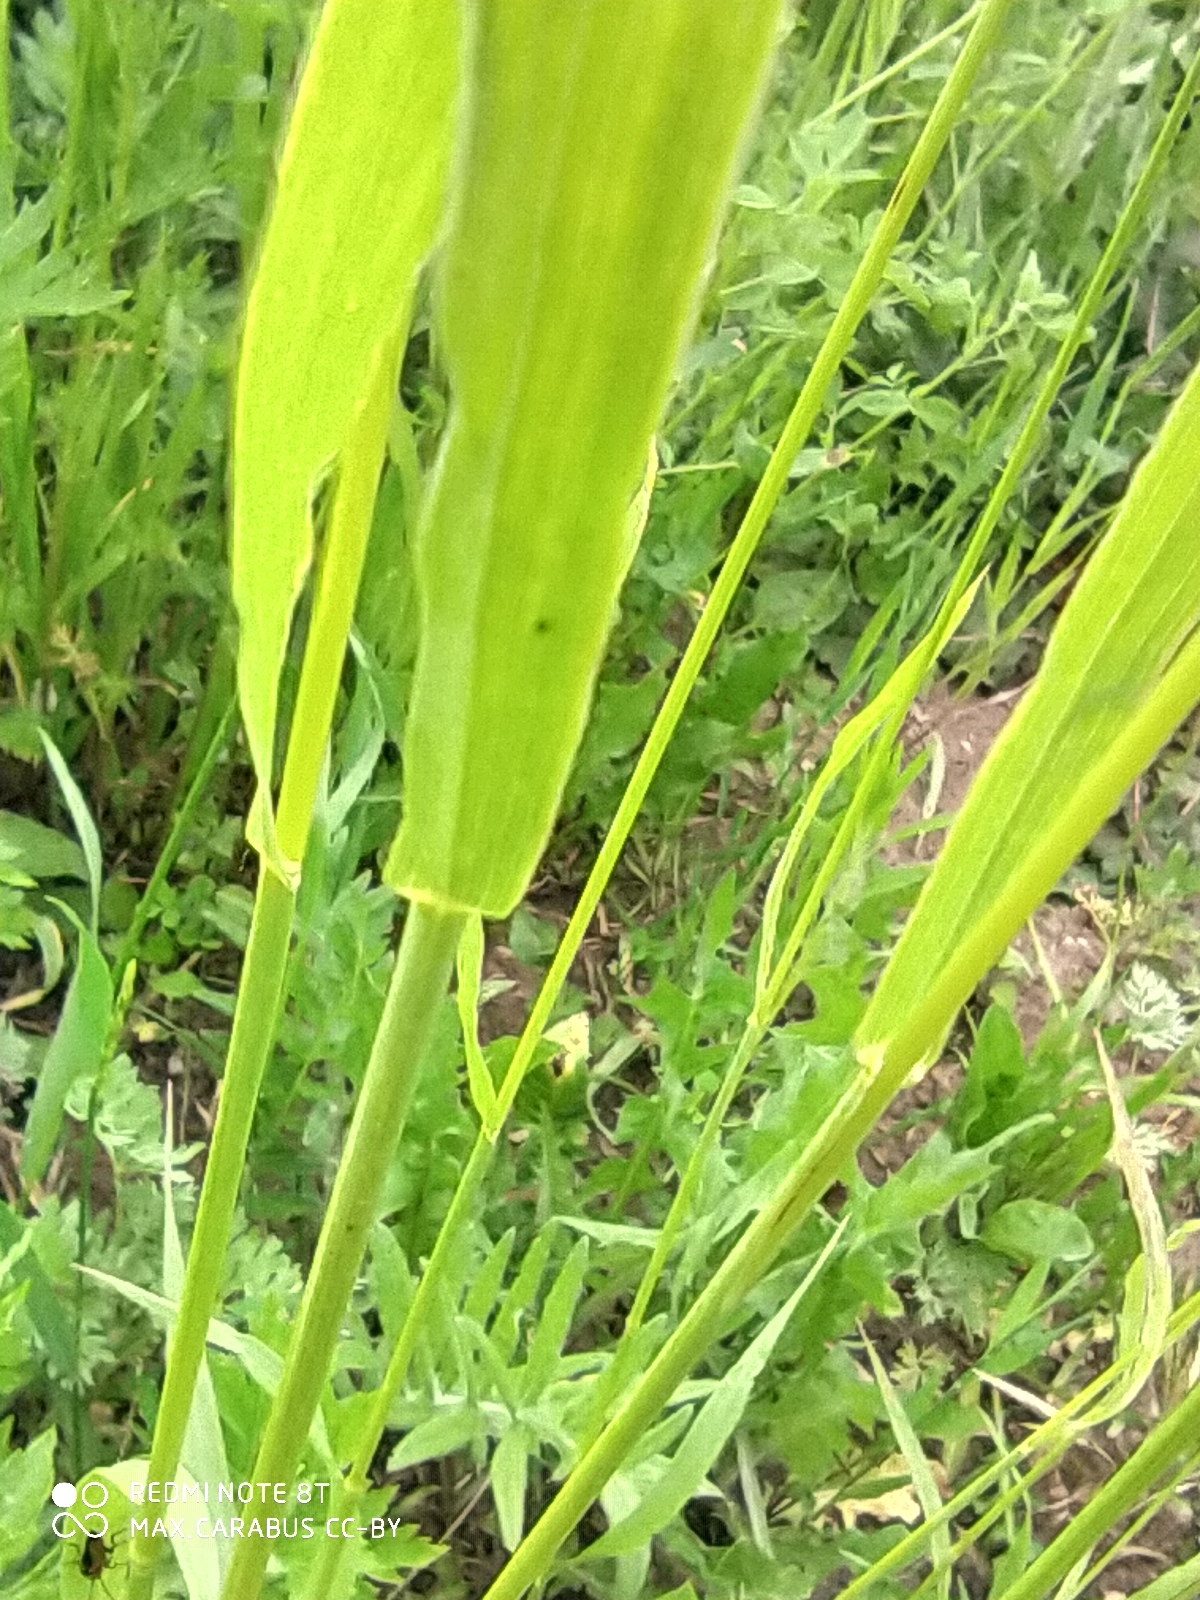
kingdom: Plantae
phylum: Tracheophyta
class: Liliopsida
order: Poales
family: Poaceae
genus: Bromus
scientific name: Bromus inermis
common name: Smooth brome
